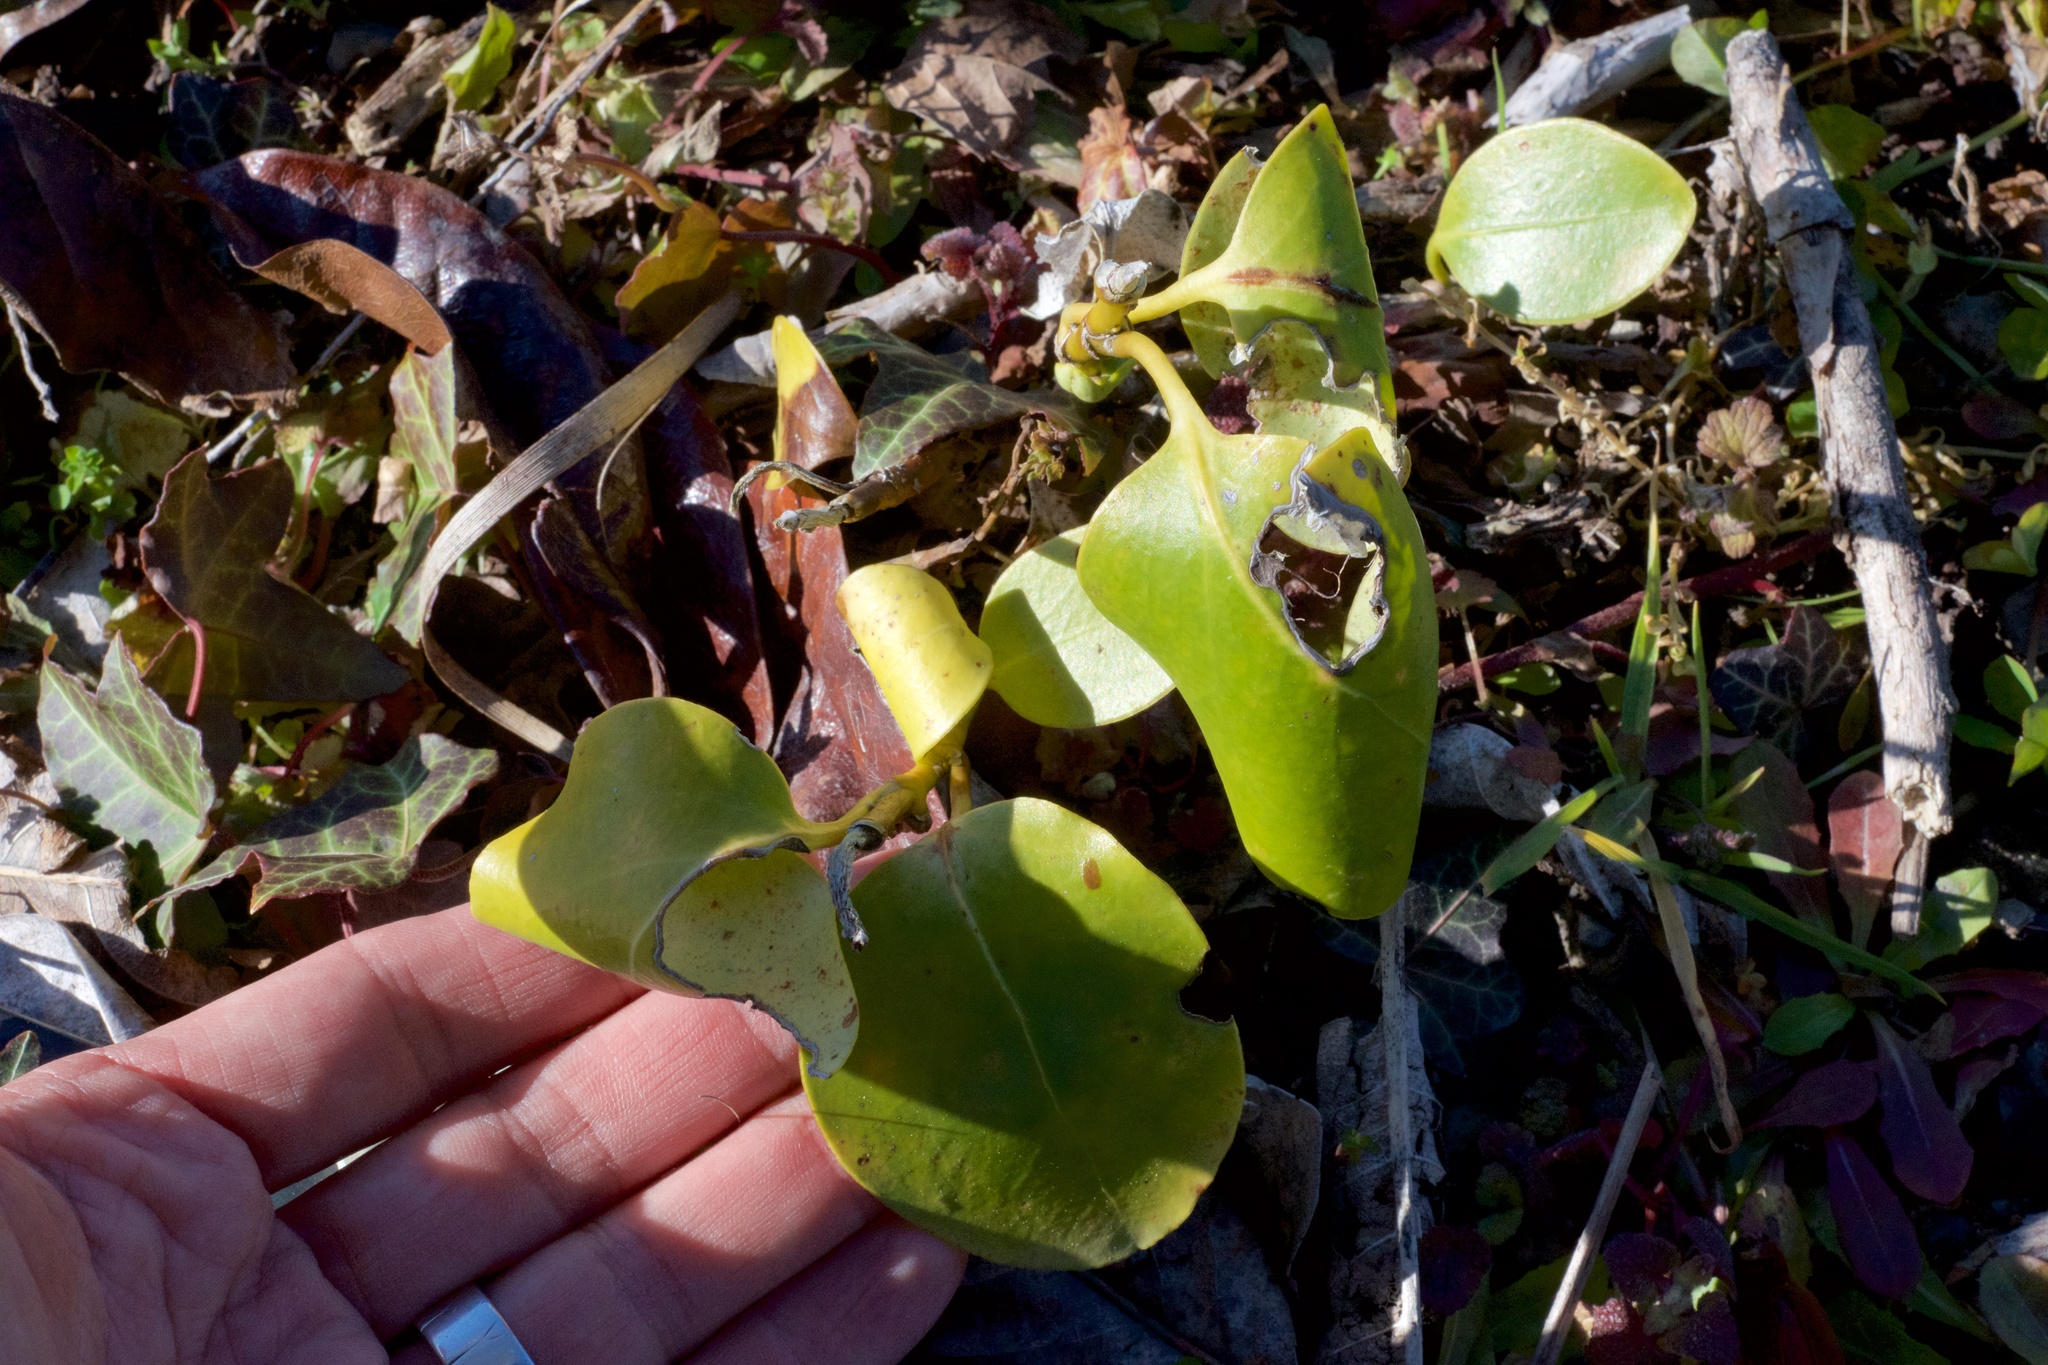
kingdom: Plantae
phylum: Tracheophyta
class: Magnoliopsida
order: Apiales
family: Griseliniaceae
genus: Griselinia
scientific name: Griselinia littoralis
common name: New zealand broadleaf
